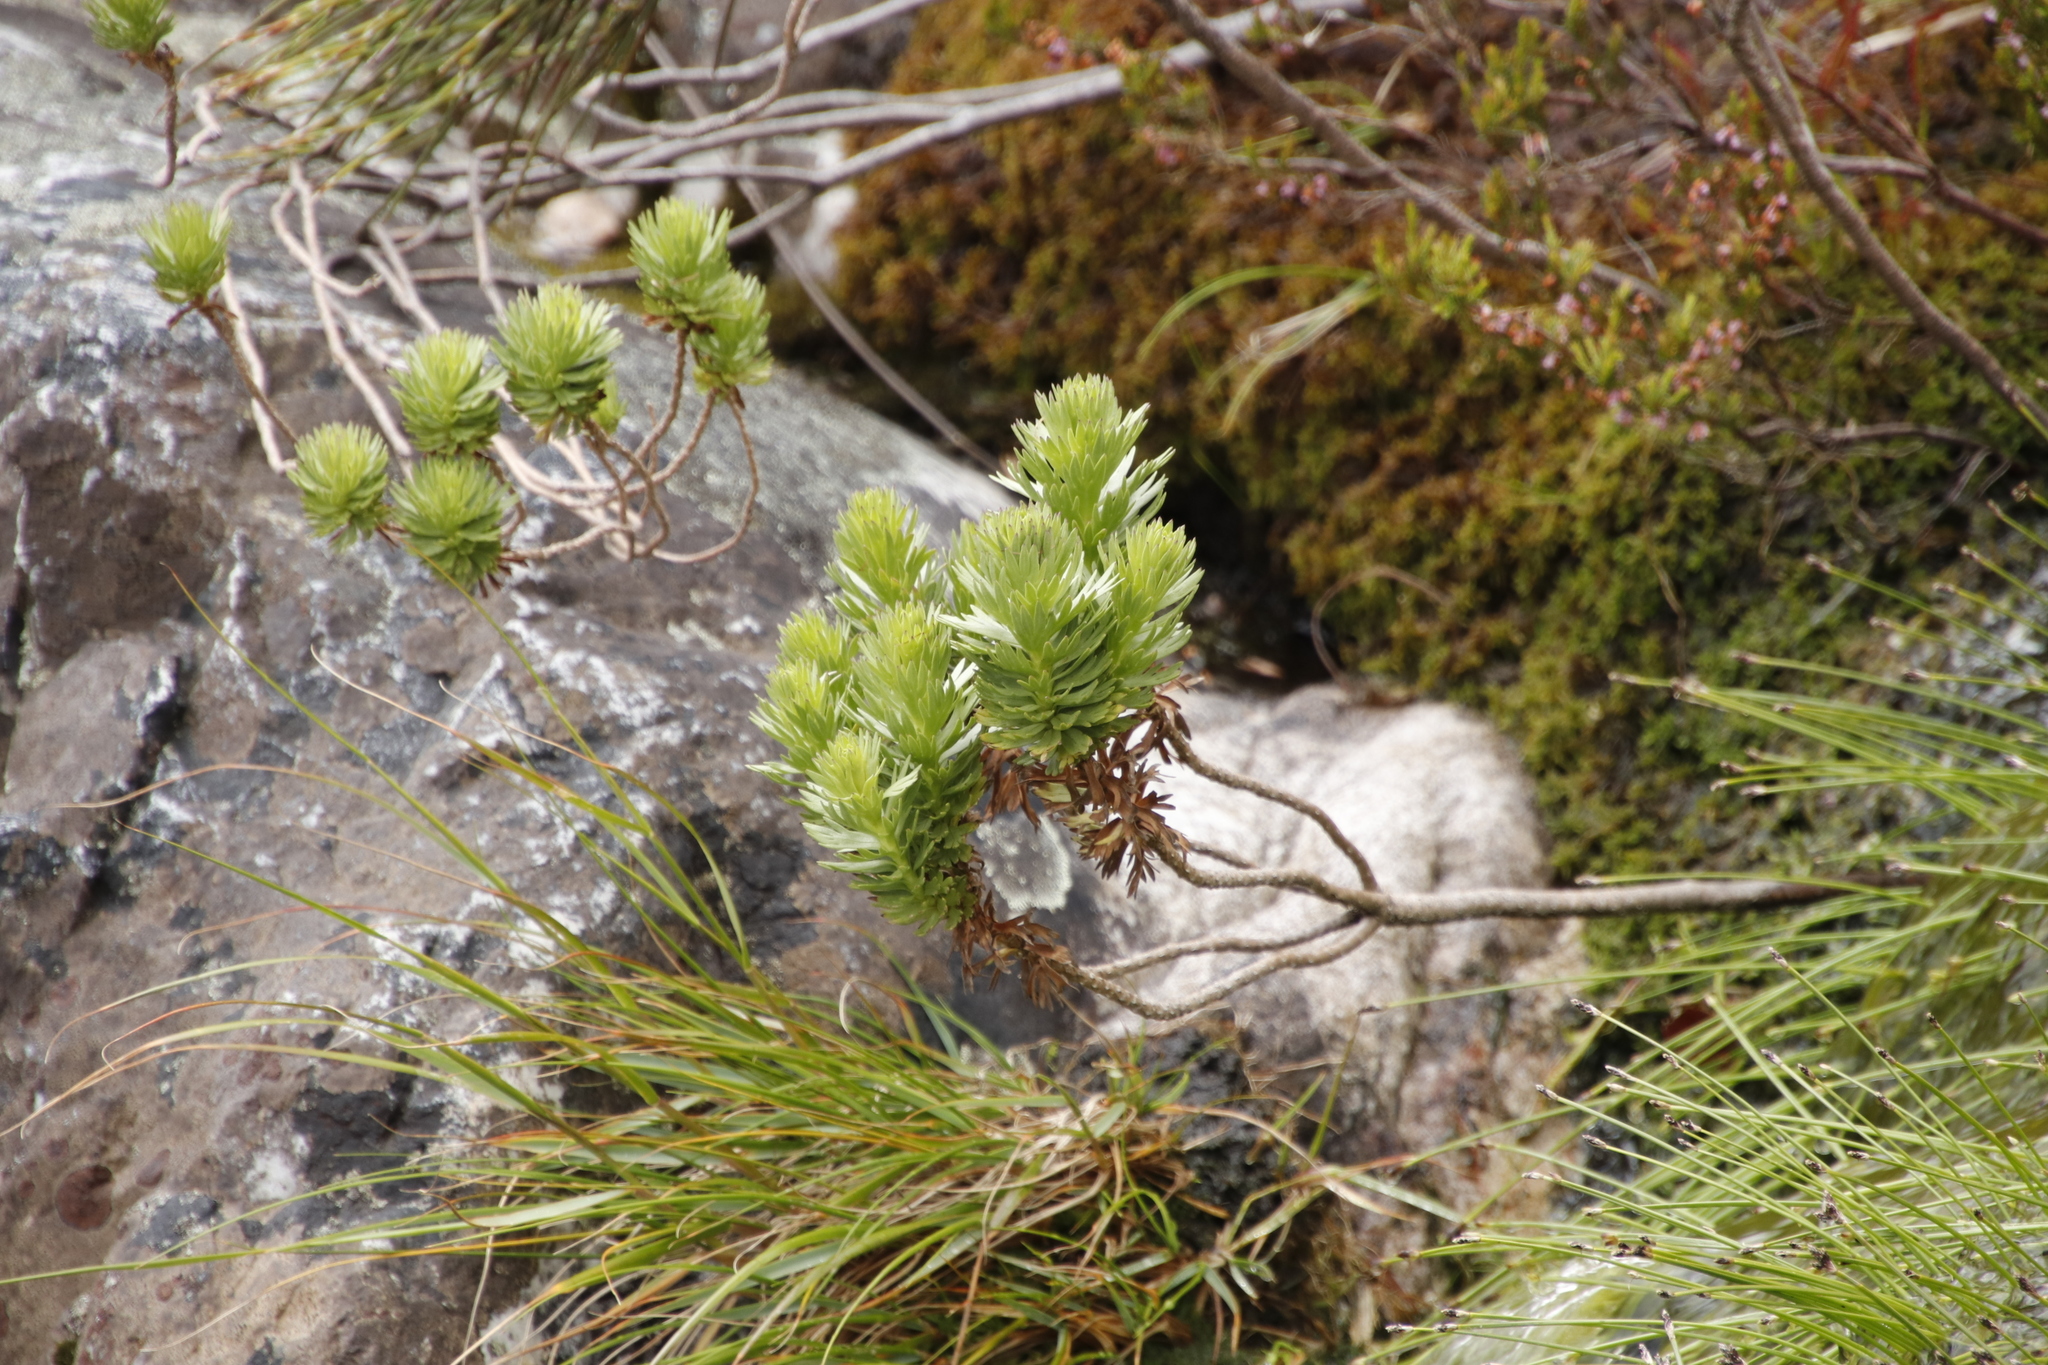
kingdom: Plantae
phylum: Tracheophyta
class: Magnoliopsida
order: Asterales
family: Asteraceae
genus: Ursinia
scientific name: Ursinia caledonica
